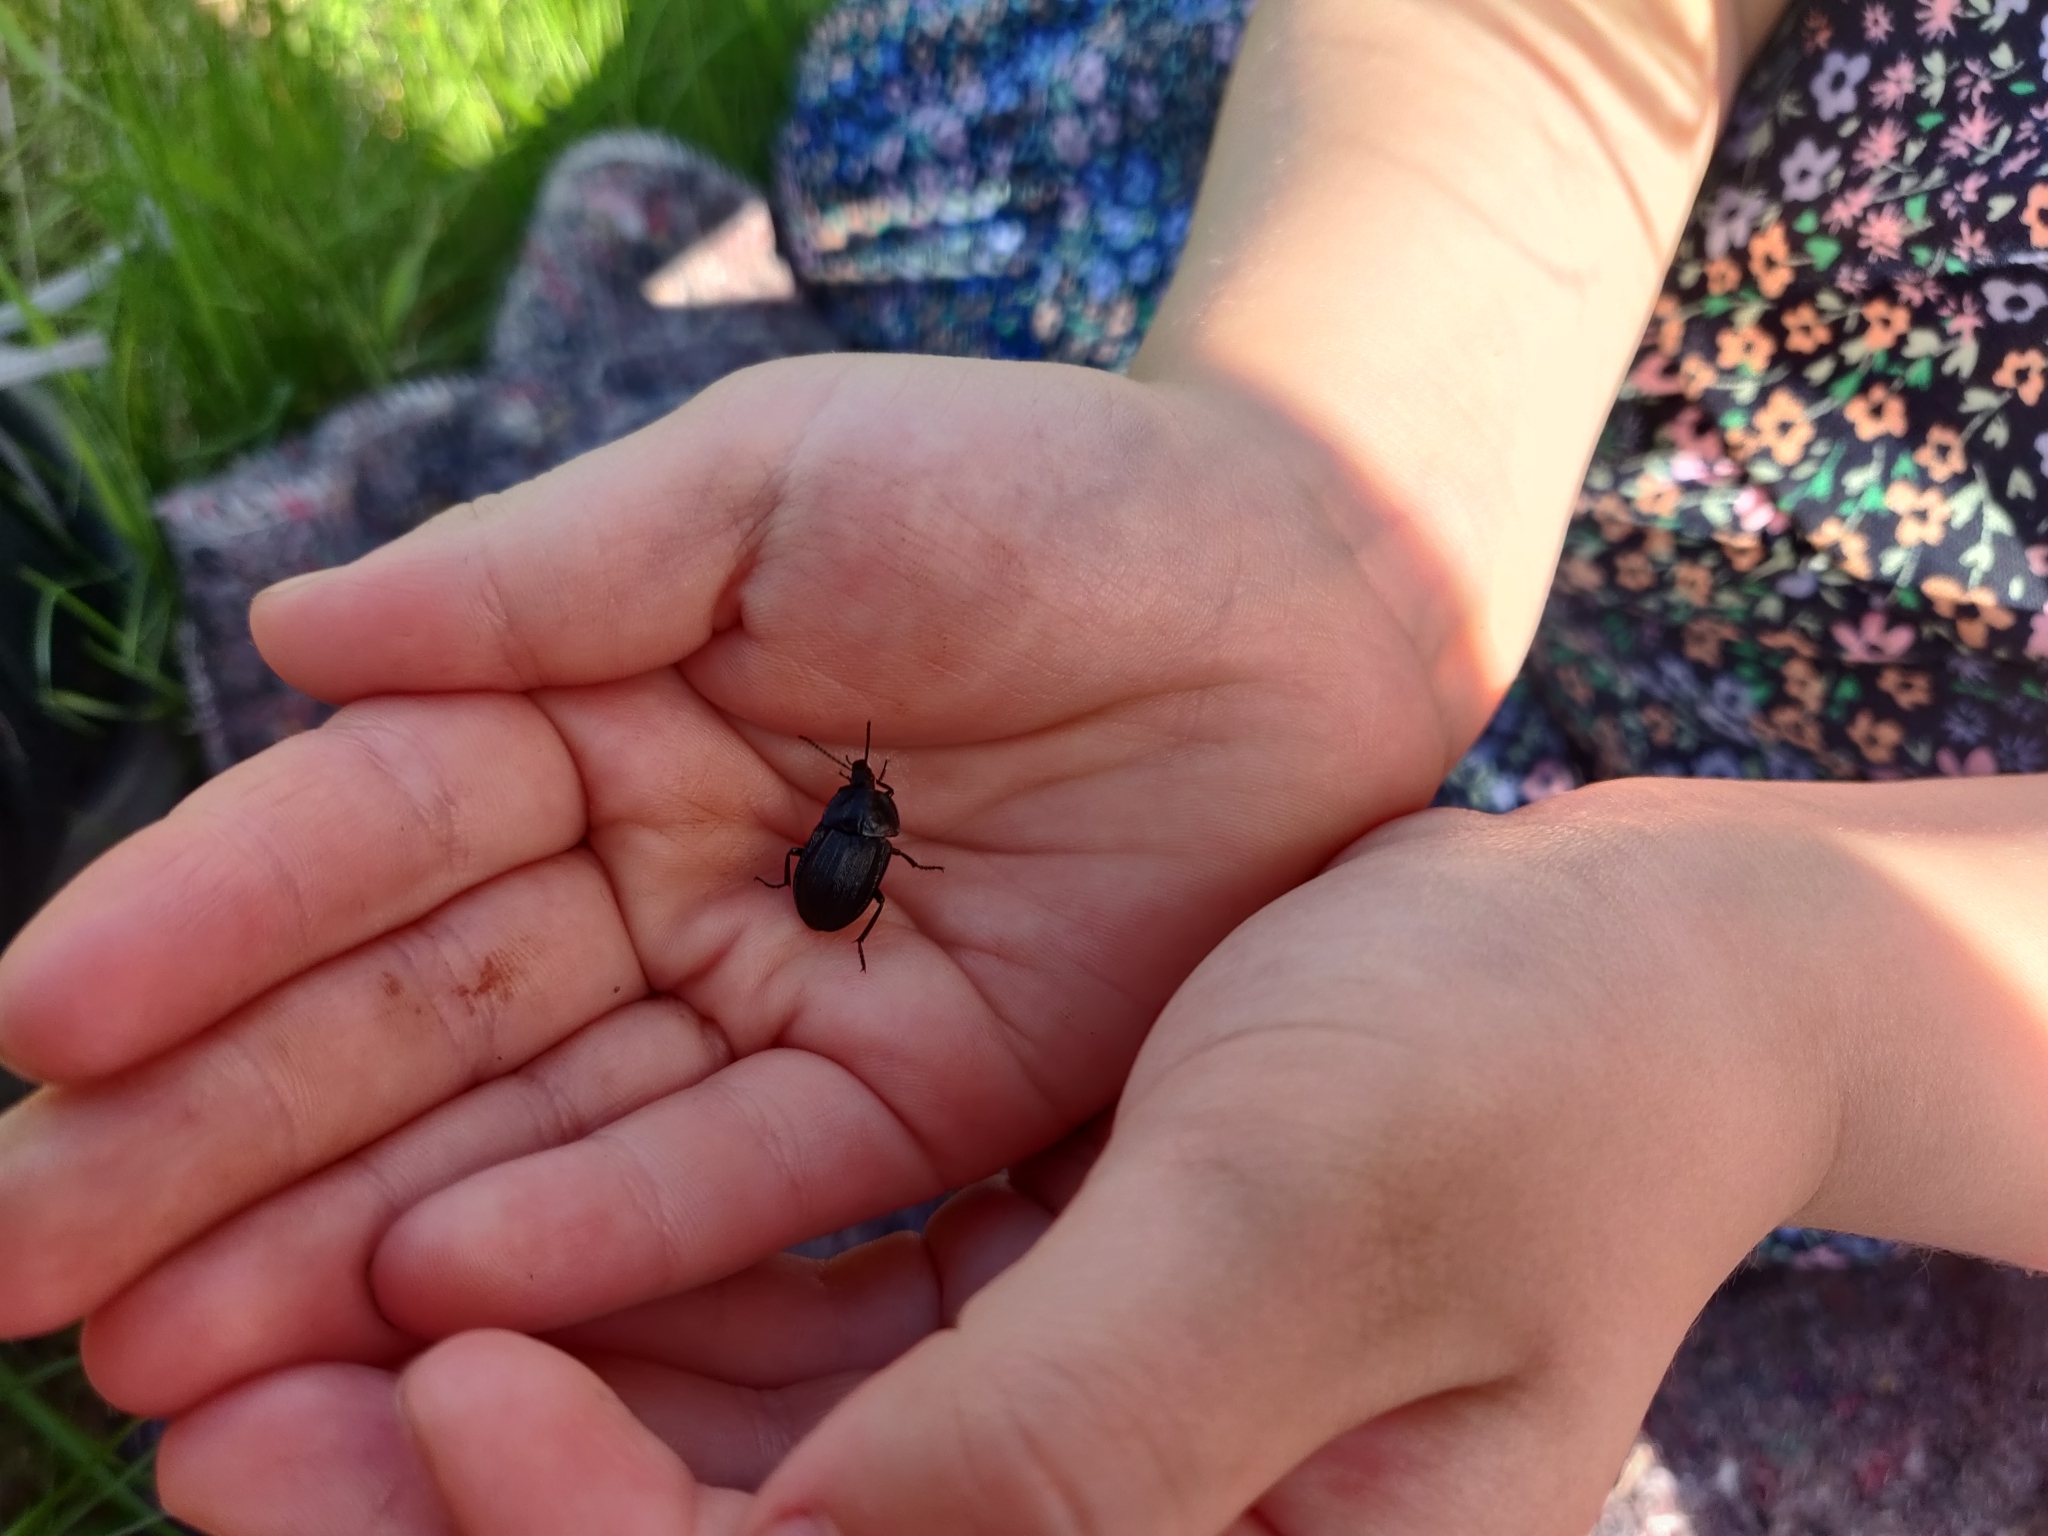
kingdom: Animalia
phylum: Arthropoda
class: Insecta
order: Coleoptera
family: Staphylinidae
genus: Silpha
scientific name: Silpha atrata
